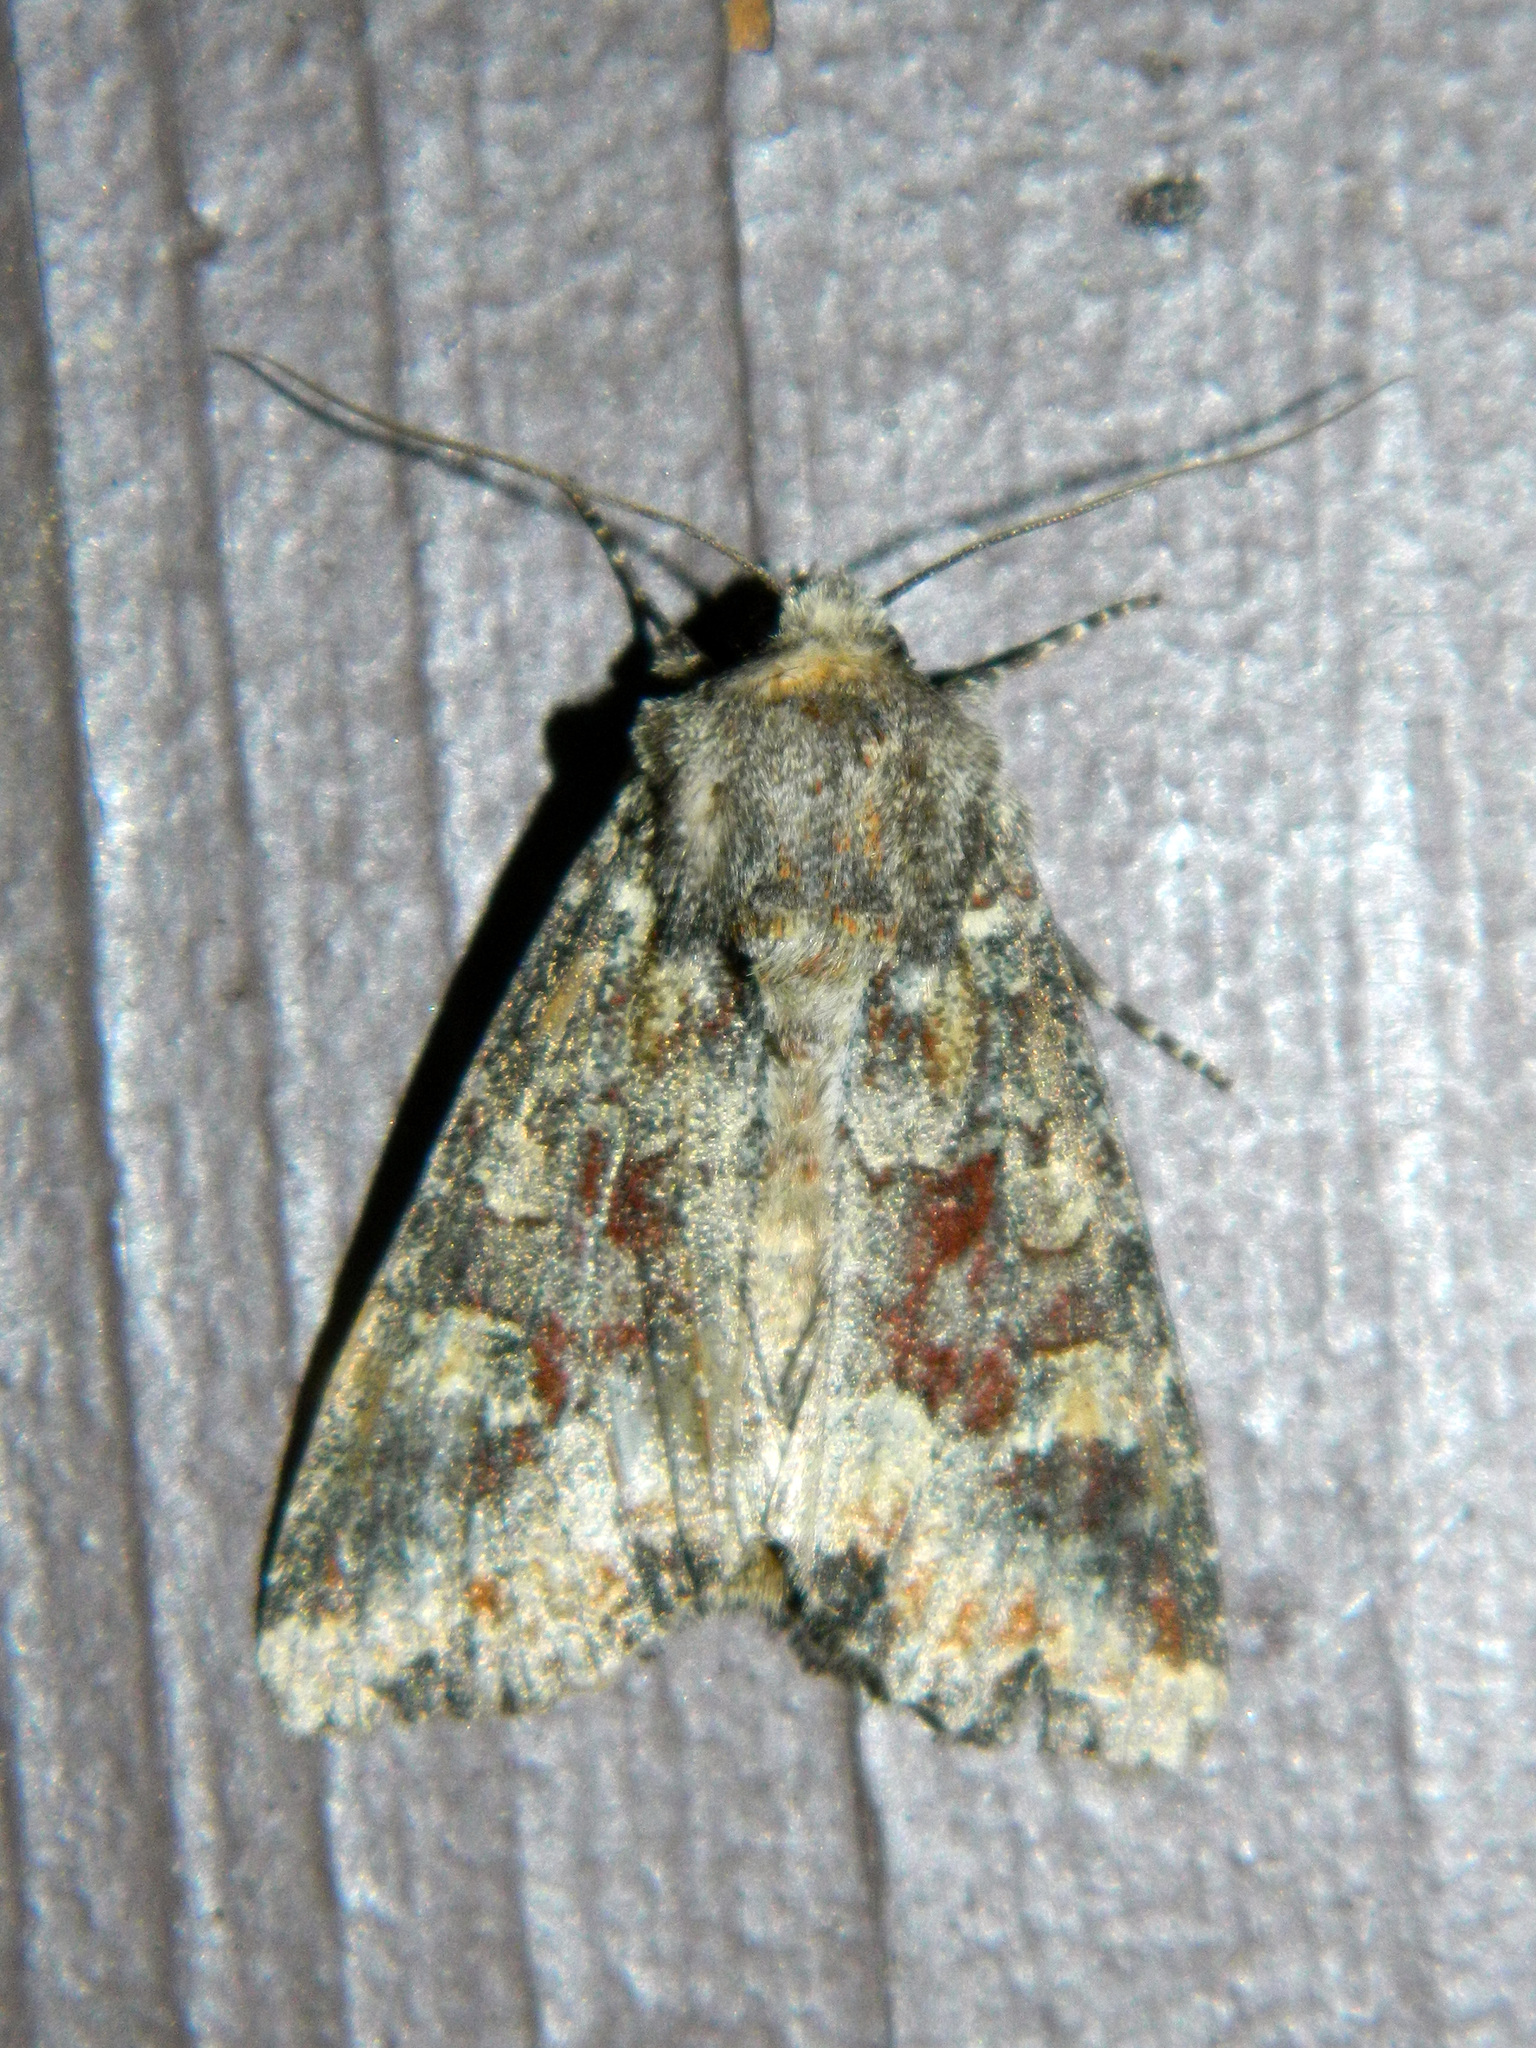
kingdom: Animalia
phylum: Arthropoda
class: Insecta
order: Lepidoptera
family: Noctuidae
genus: Apamea
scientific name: Apamea amputatrix
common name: Yellow-headed cutworm moth
